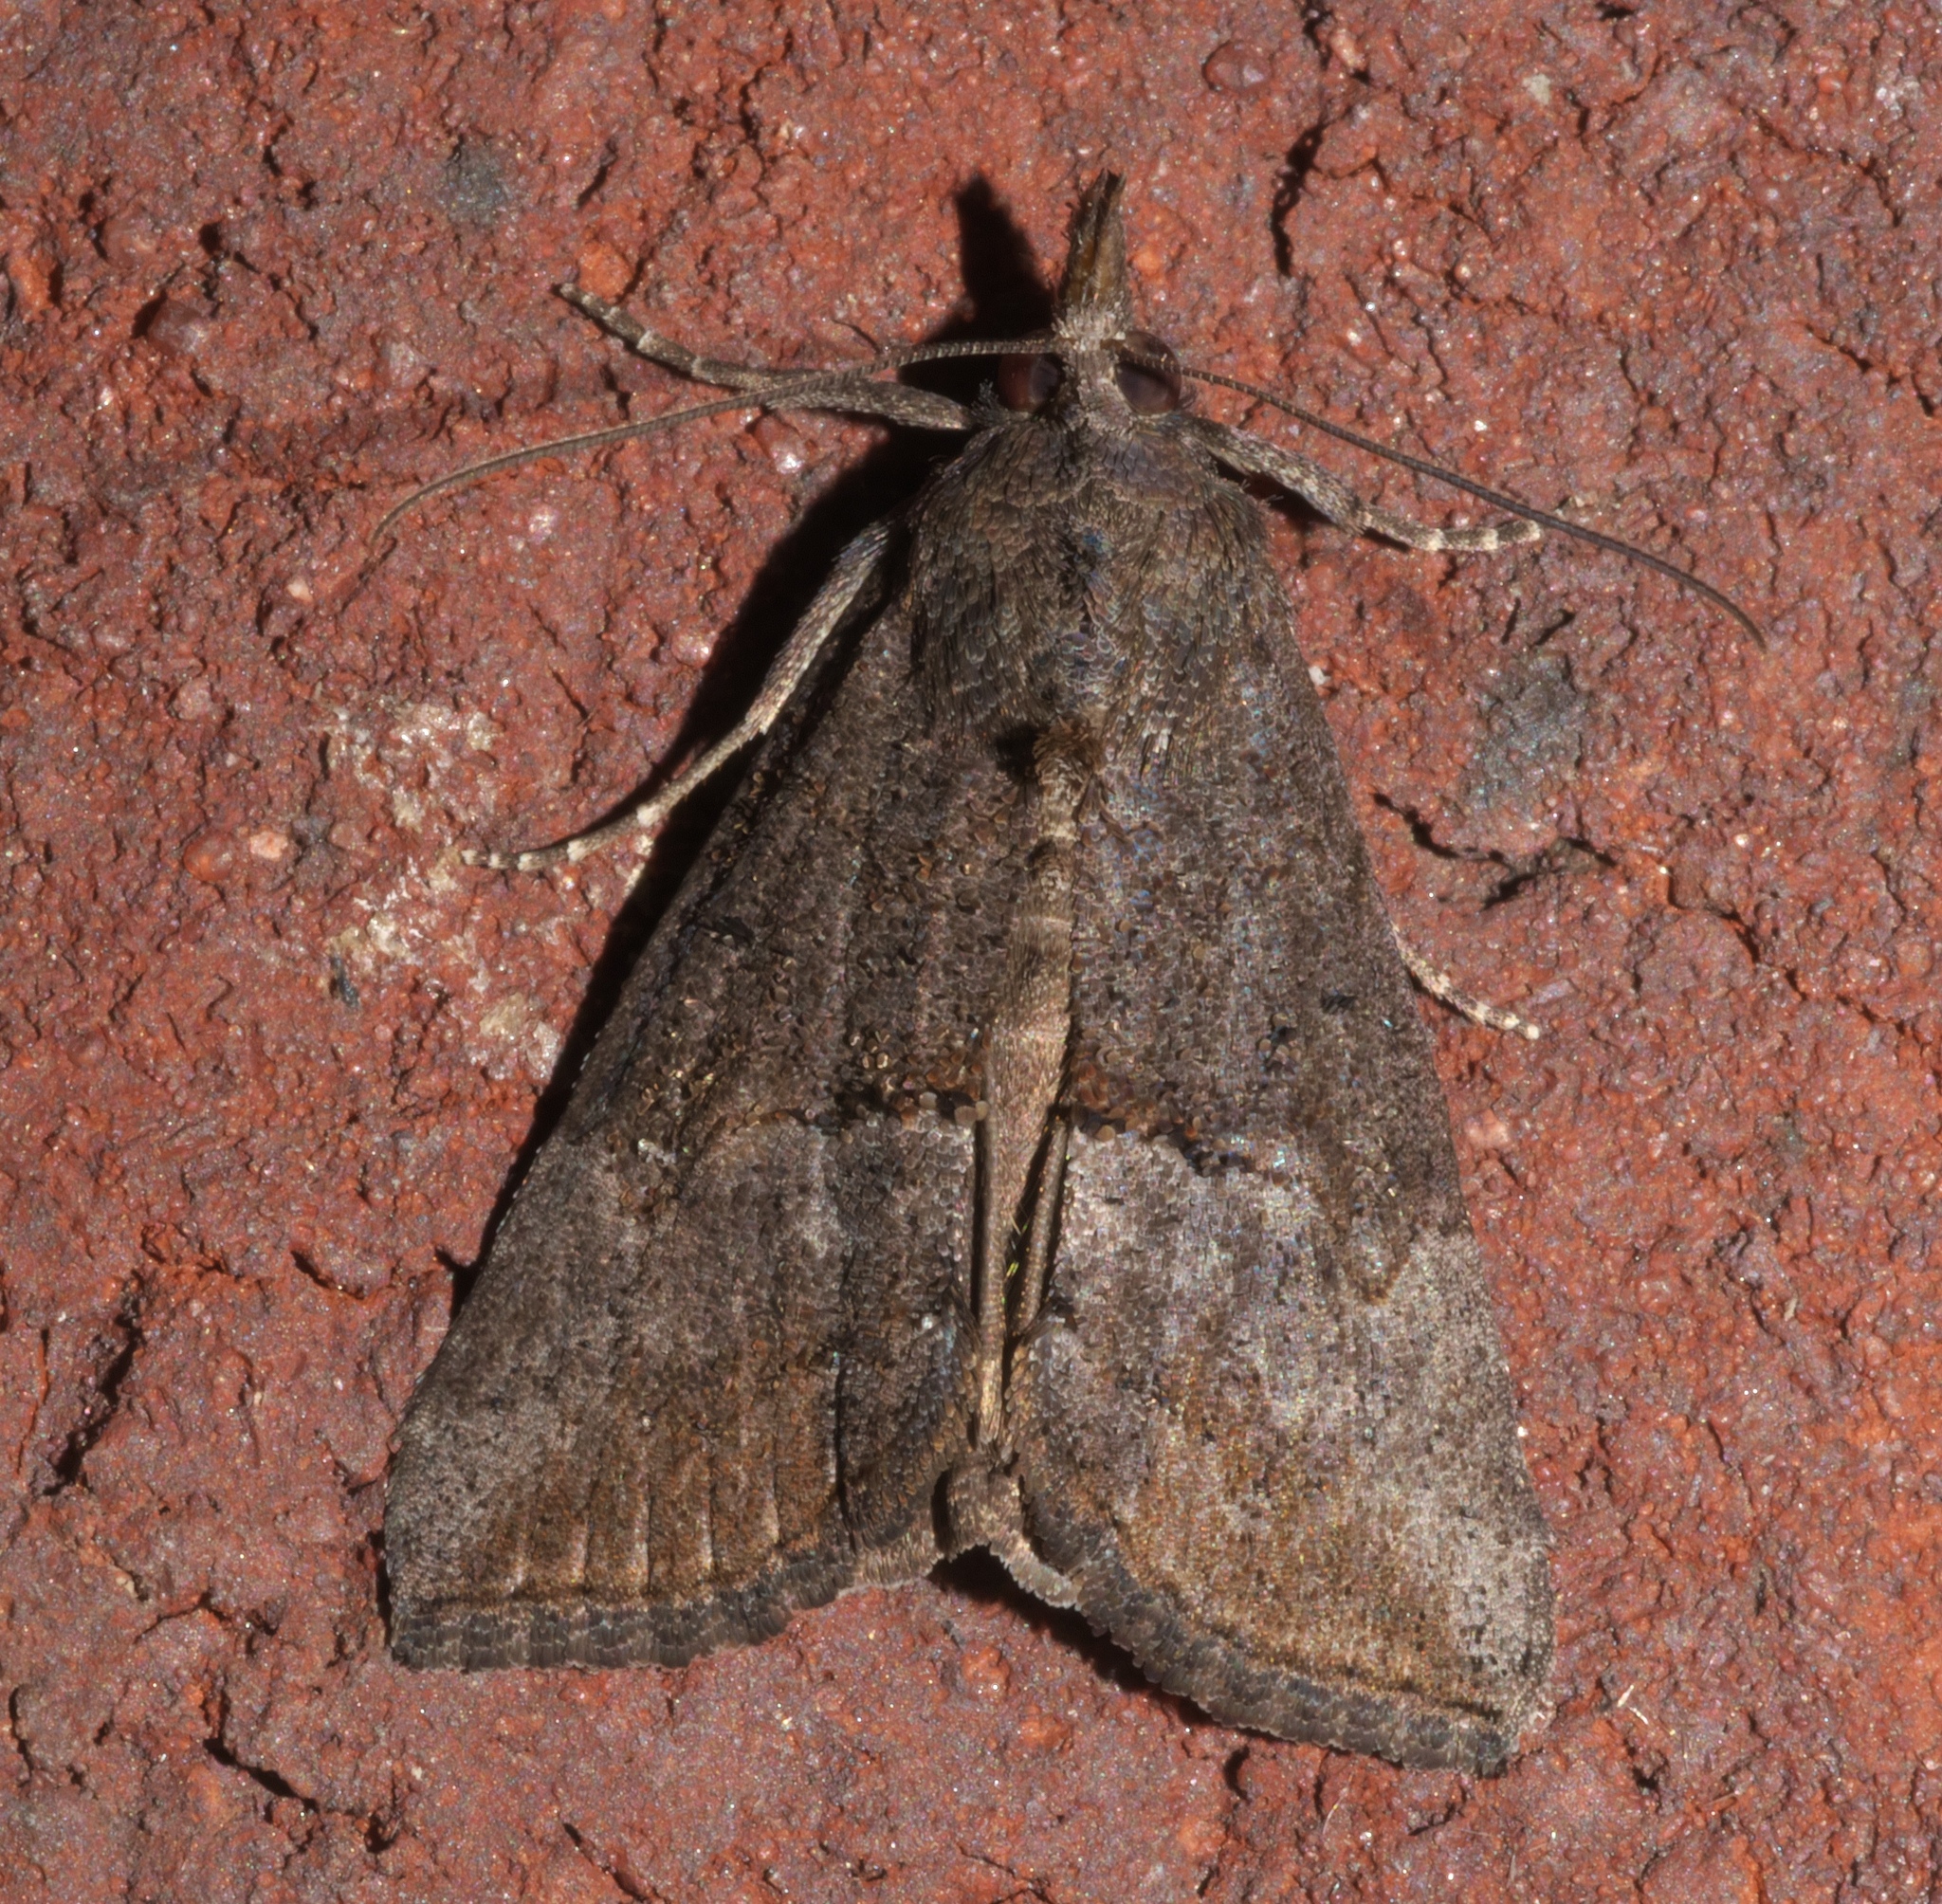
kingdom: Animalia
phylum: Arthropoda
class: Insecta
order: Lepidoptera
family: Erebidae
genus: Hypena
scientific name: Hypena scabra
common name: Green cloverworm
